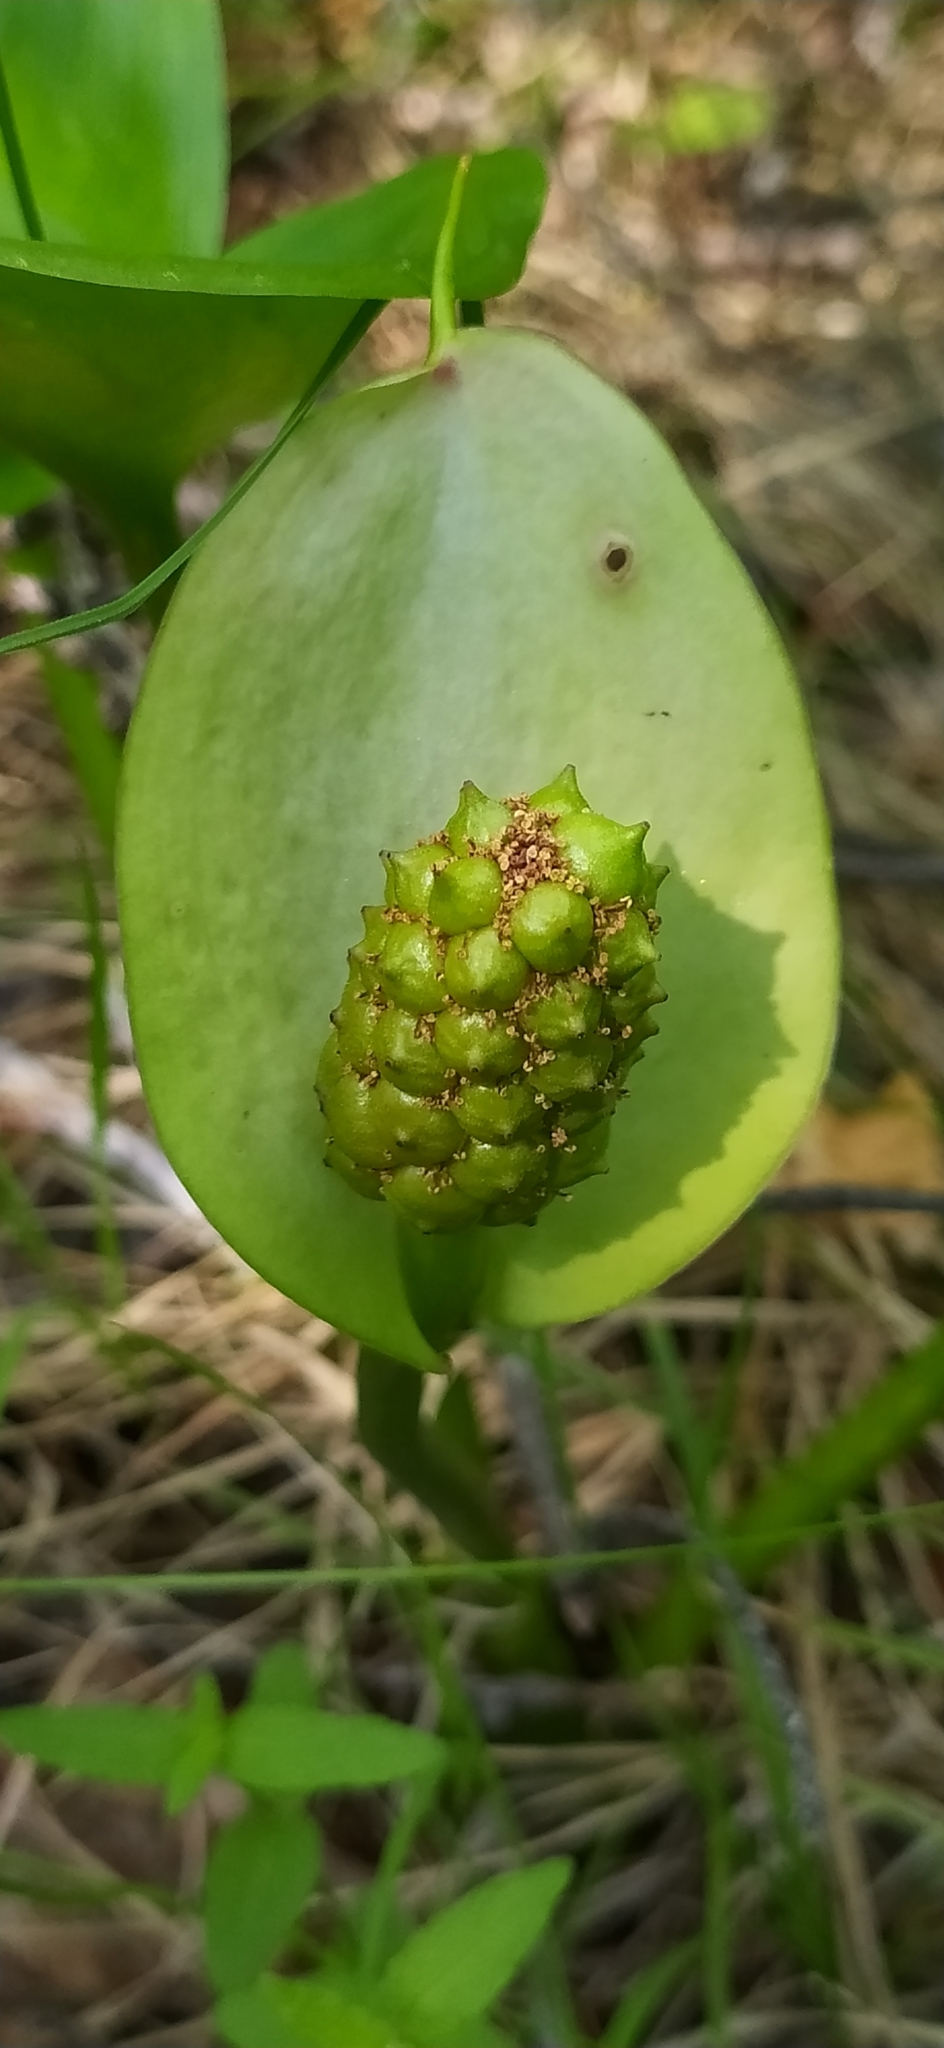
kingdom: Plantae
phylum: Tracheophyta
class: Liliopsida
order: Alismatales
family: Araceae
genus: Calla
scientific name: Calla palustris
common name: Bog arum
